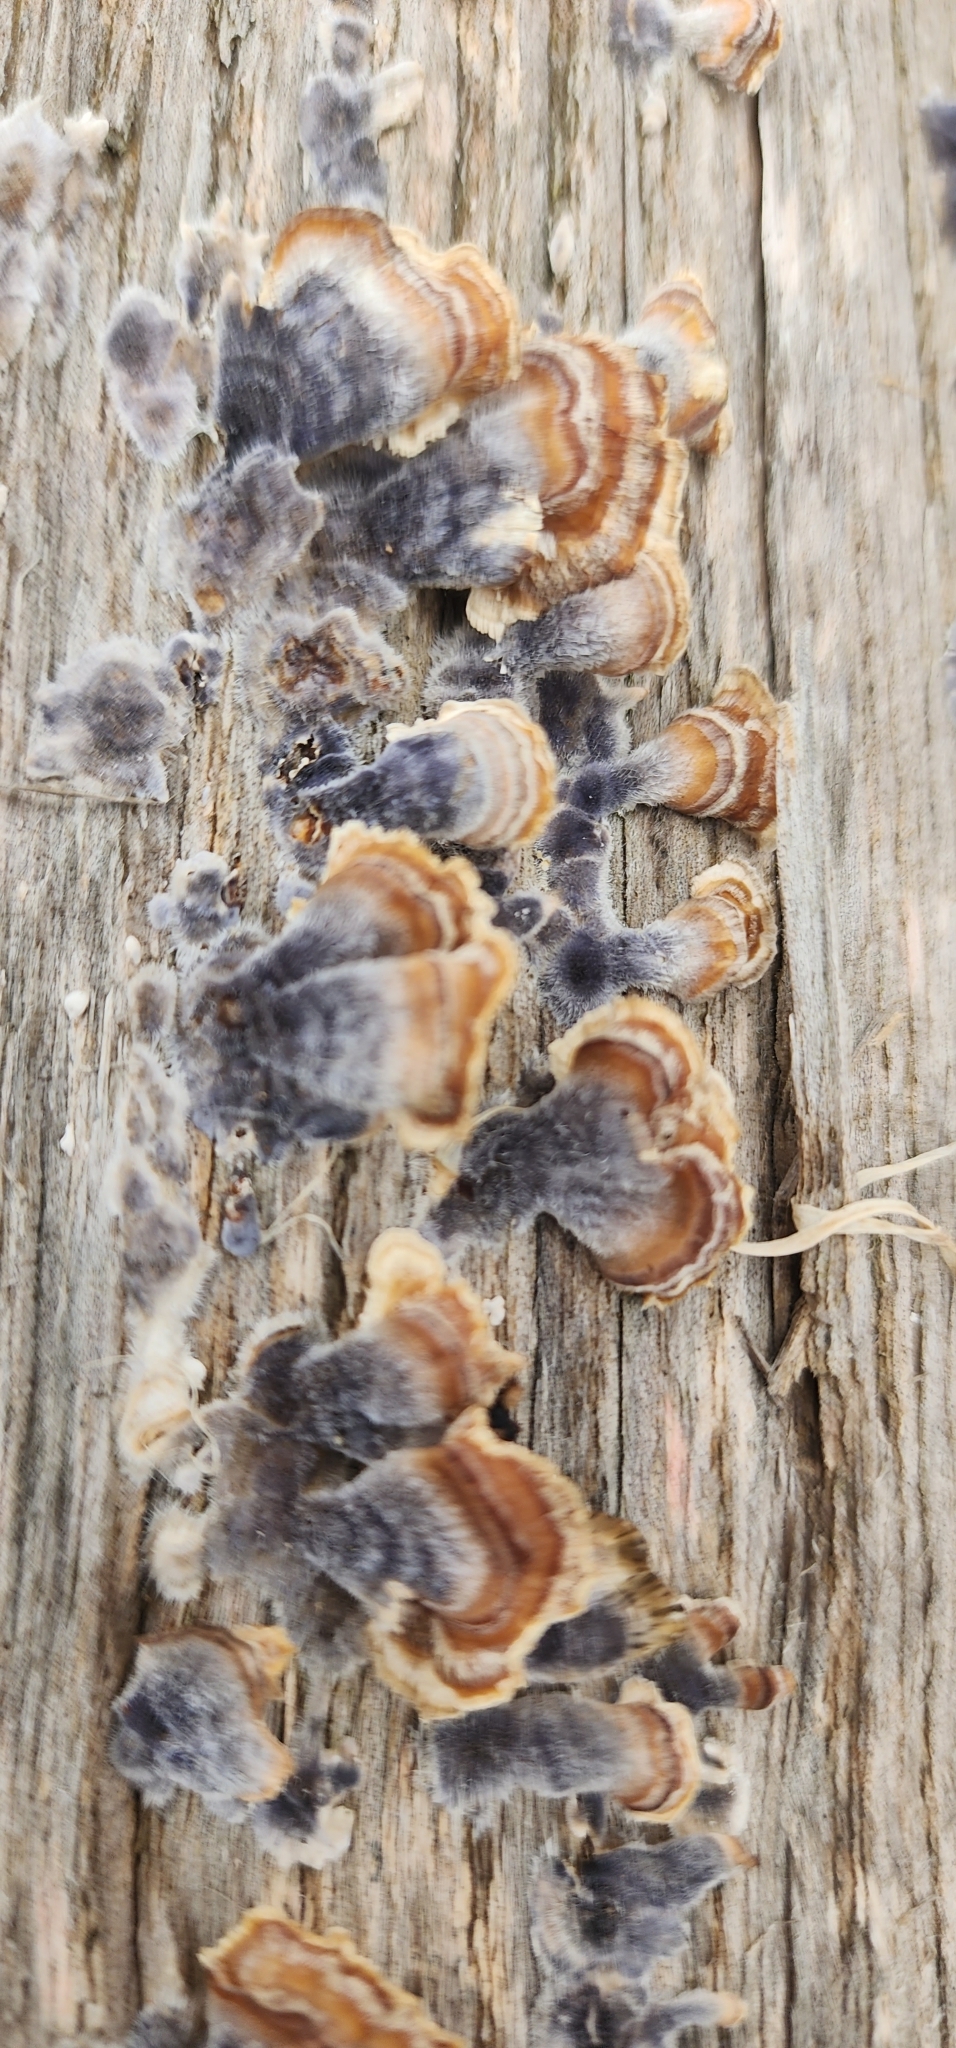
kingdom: Fungi
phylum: Basidiomycota
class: Agaricomycetes
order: Polyporales
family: Polyporaceae
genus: Trametes
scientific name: Trametes versicolor
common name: Turkeytail
